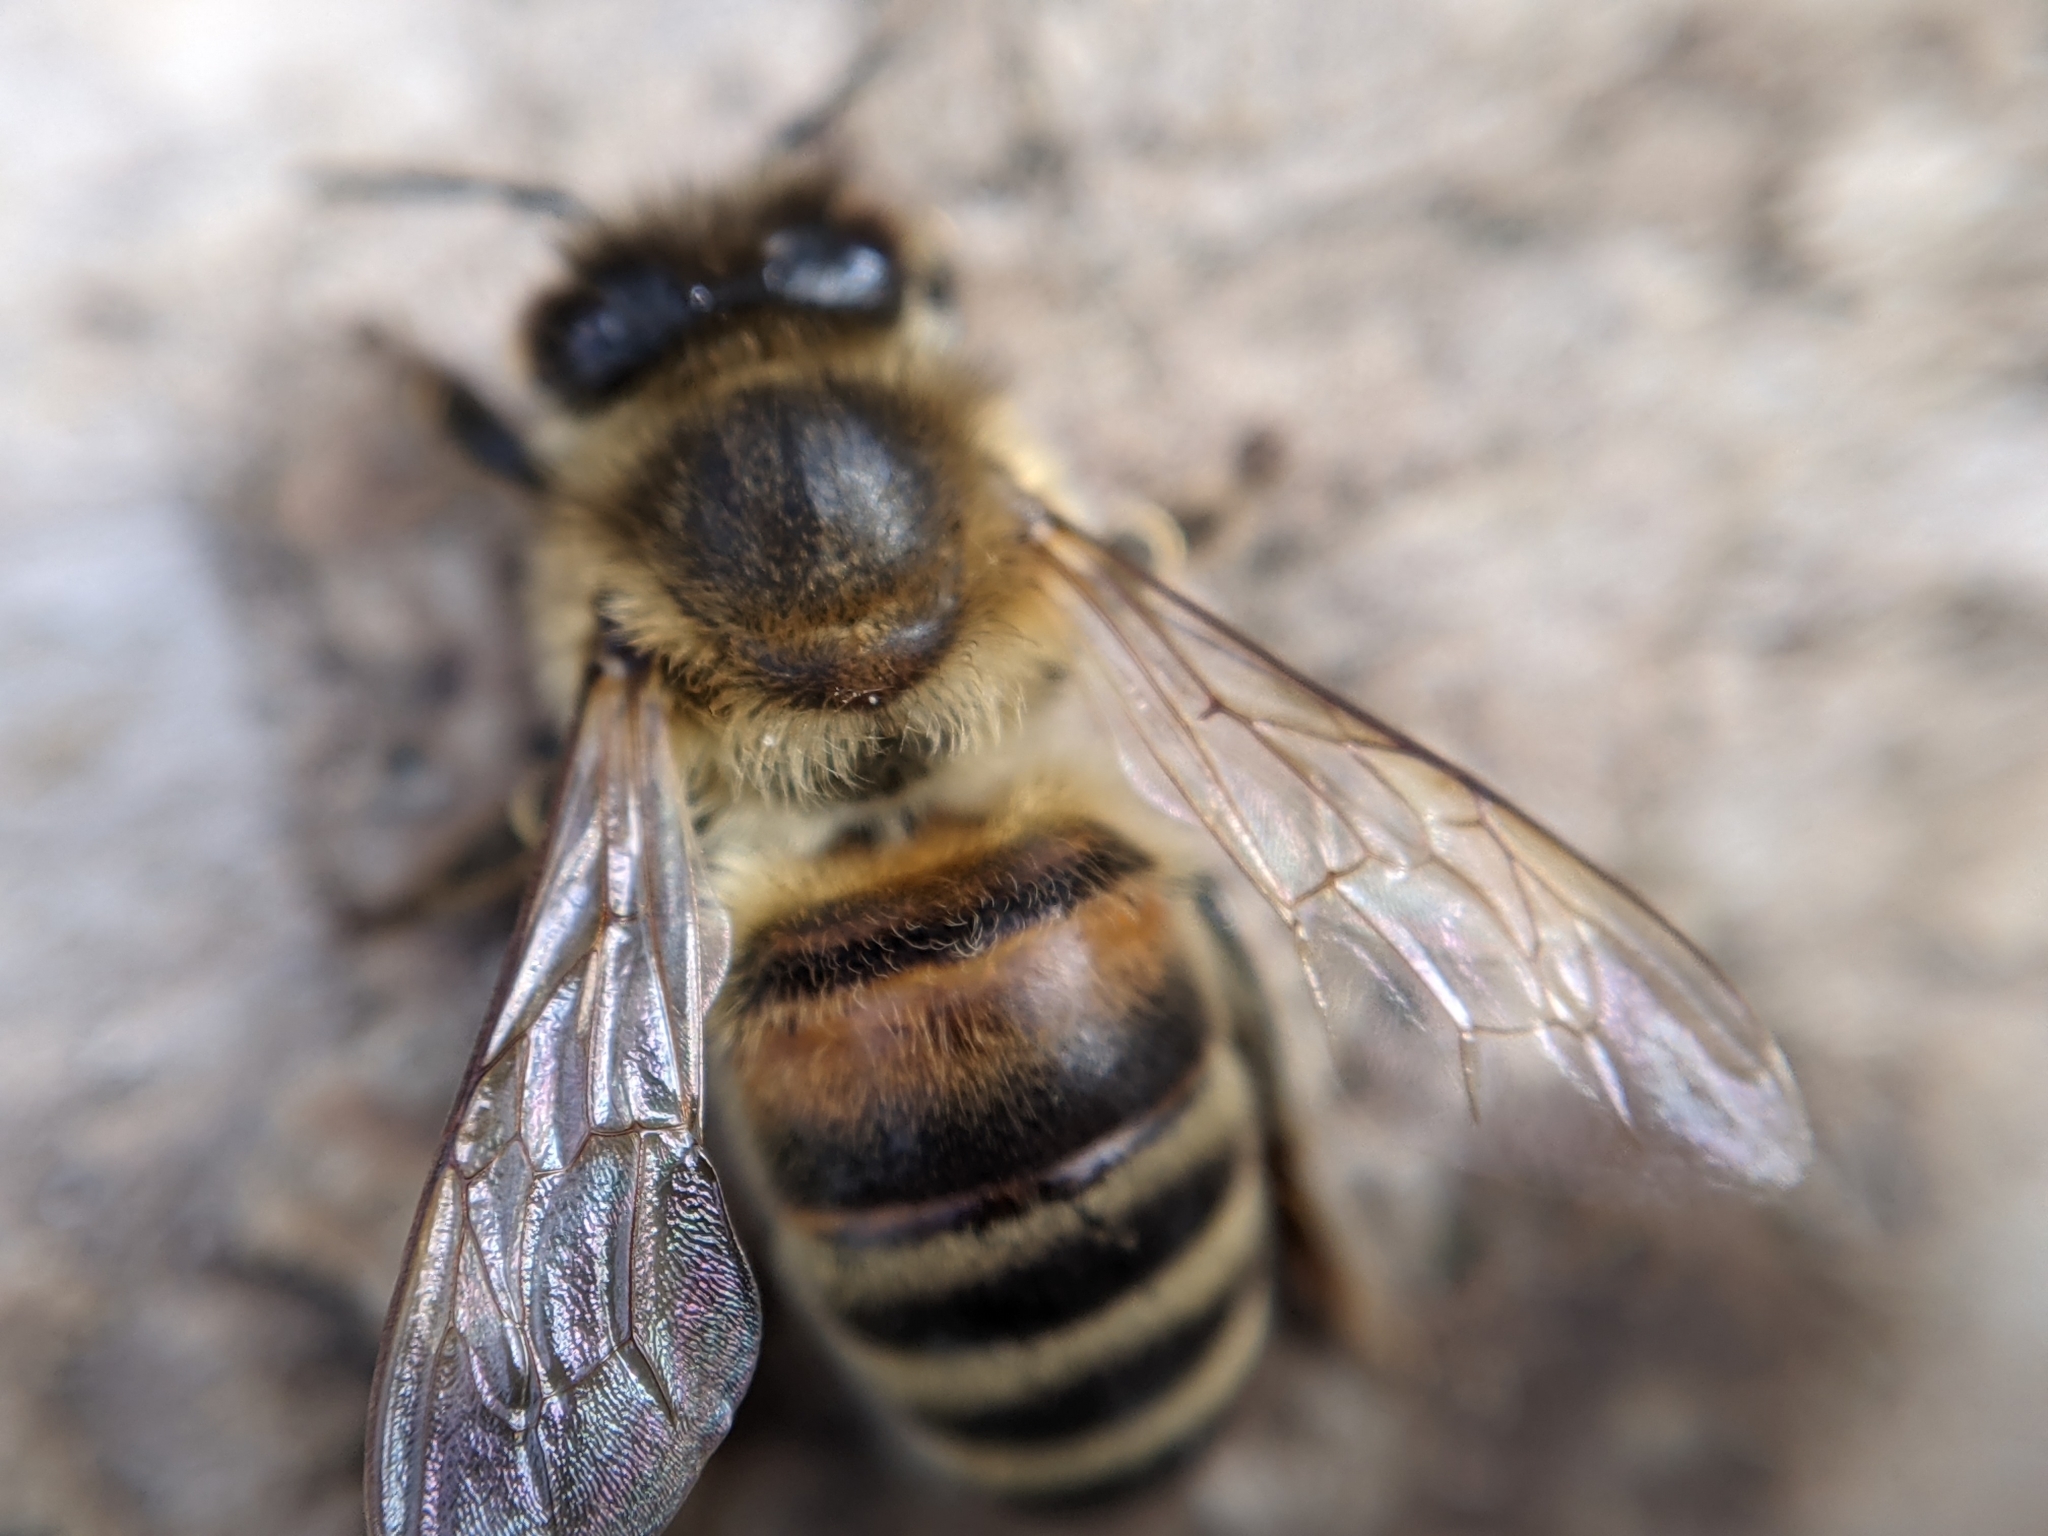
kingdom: Animalia
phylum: Arthropoda
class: Insecta
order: Hymenoptera
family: Apidae
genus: Apis
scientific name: Apis mellifera
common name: Honey bee
